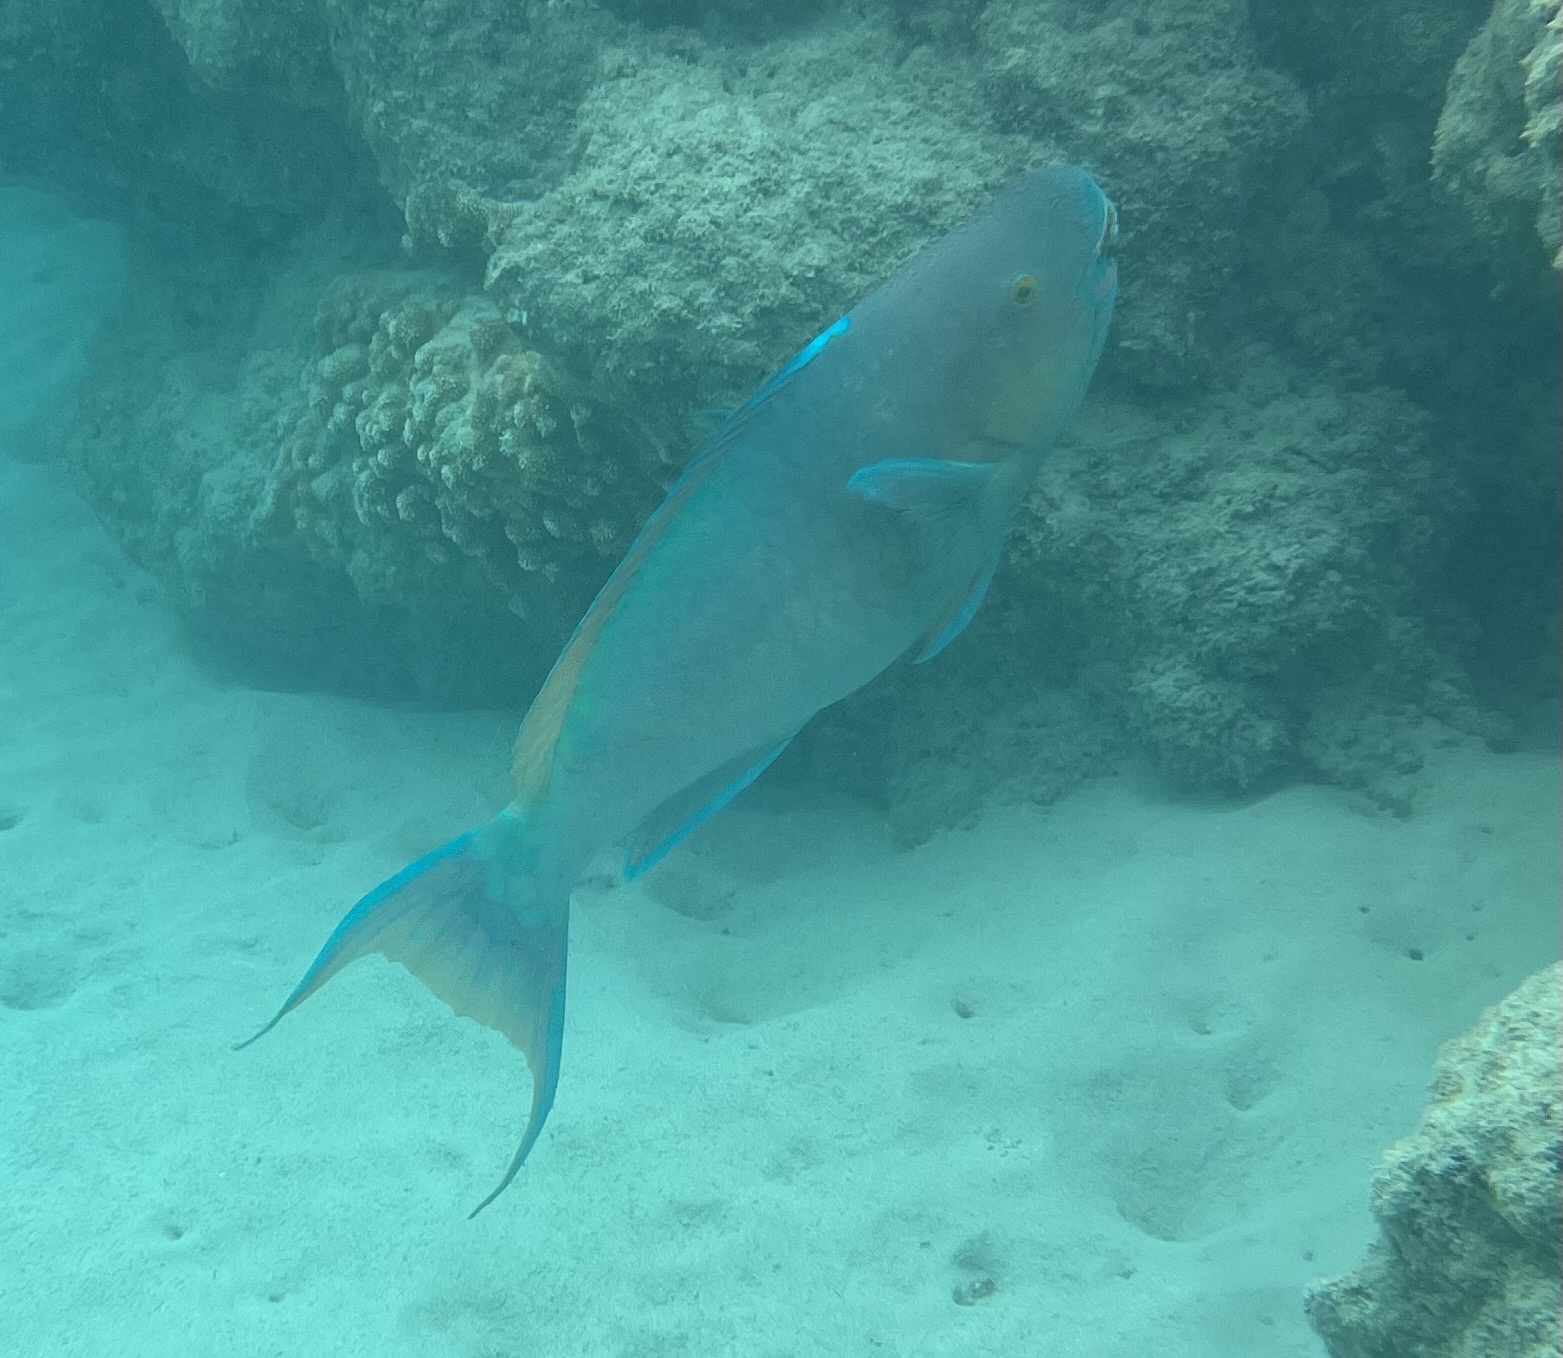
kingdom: Animalia
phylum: Chordata
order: Perciformes
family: Scaridae
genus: Scarus
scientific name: Scarus rubroviolaceus
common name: Ember parrotfish
